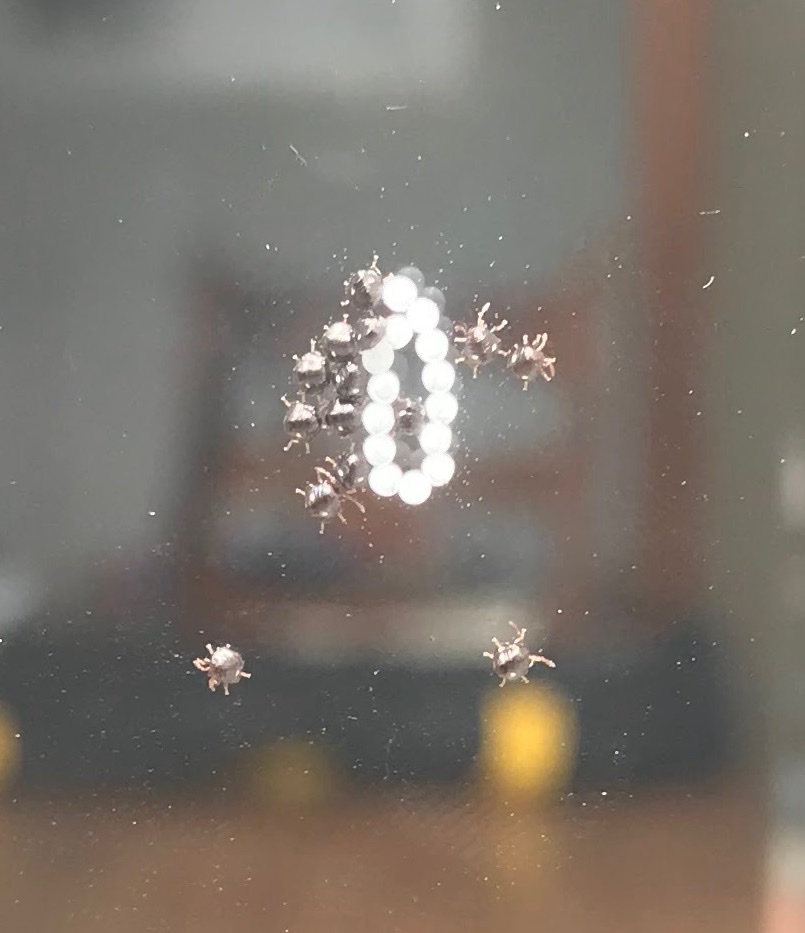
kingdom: Animalia
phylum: Arthropoda
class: Insecta
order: Hemiptera
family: Pentatomidae
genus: Glaucias
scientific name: Glaucias amyota
